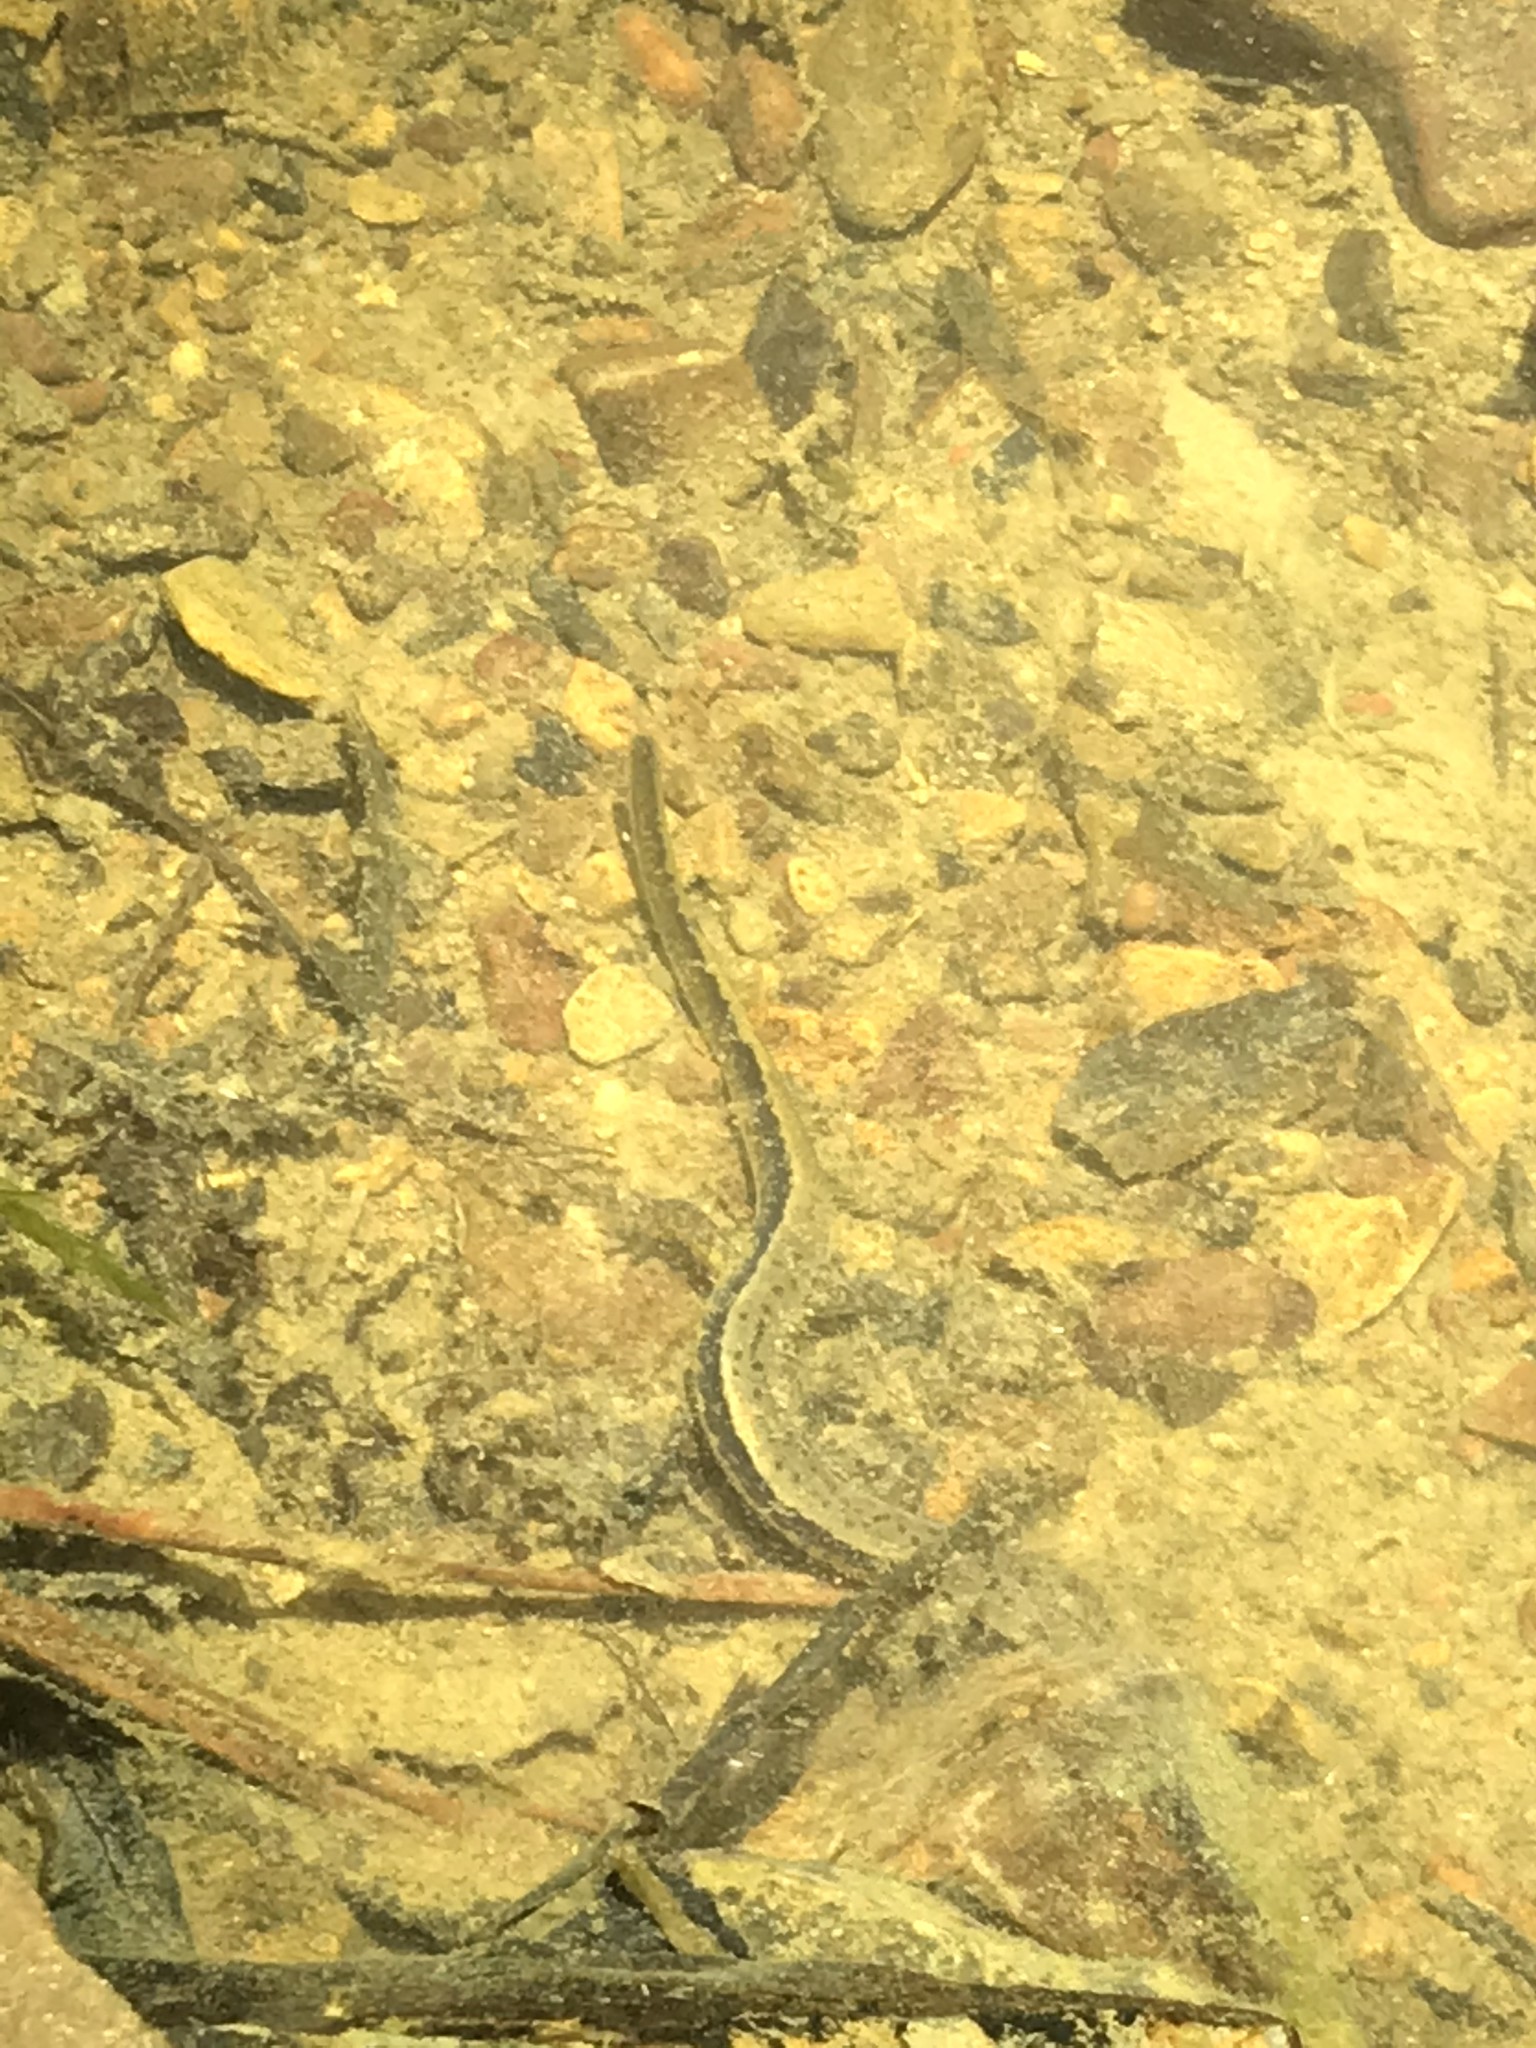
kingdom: Animalia
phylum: Chordata
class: Amphibia
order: Caudata
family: Plethodontidae
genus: Eurycea
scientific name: Eurycea cirrigera
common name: Southern two-lined salamander
